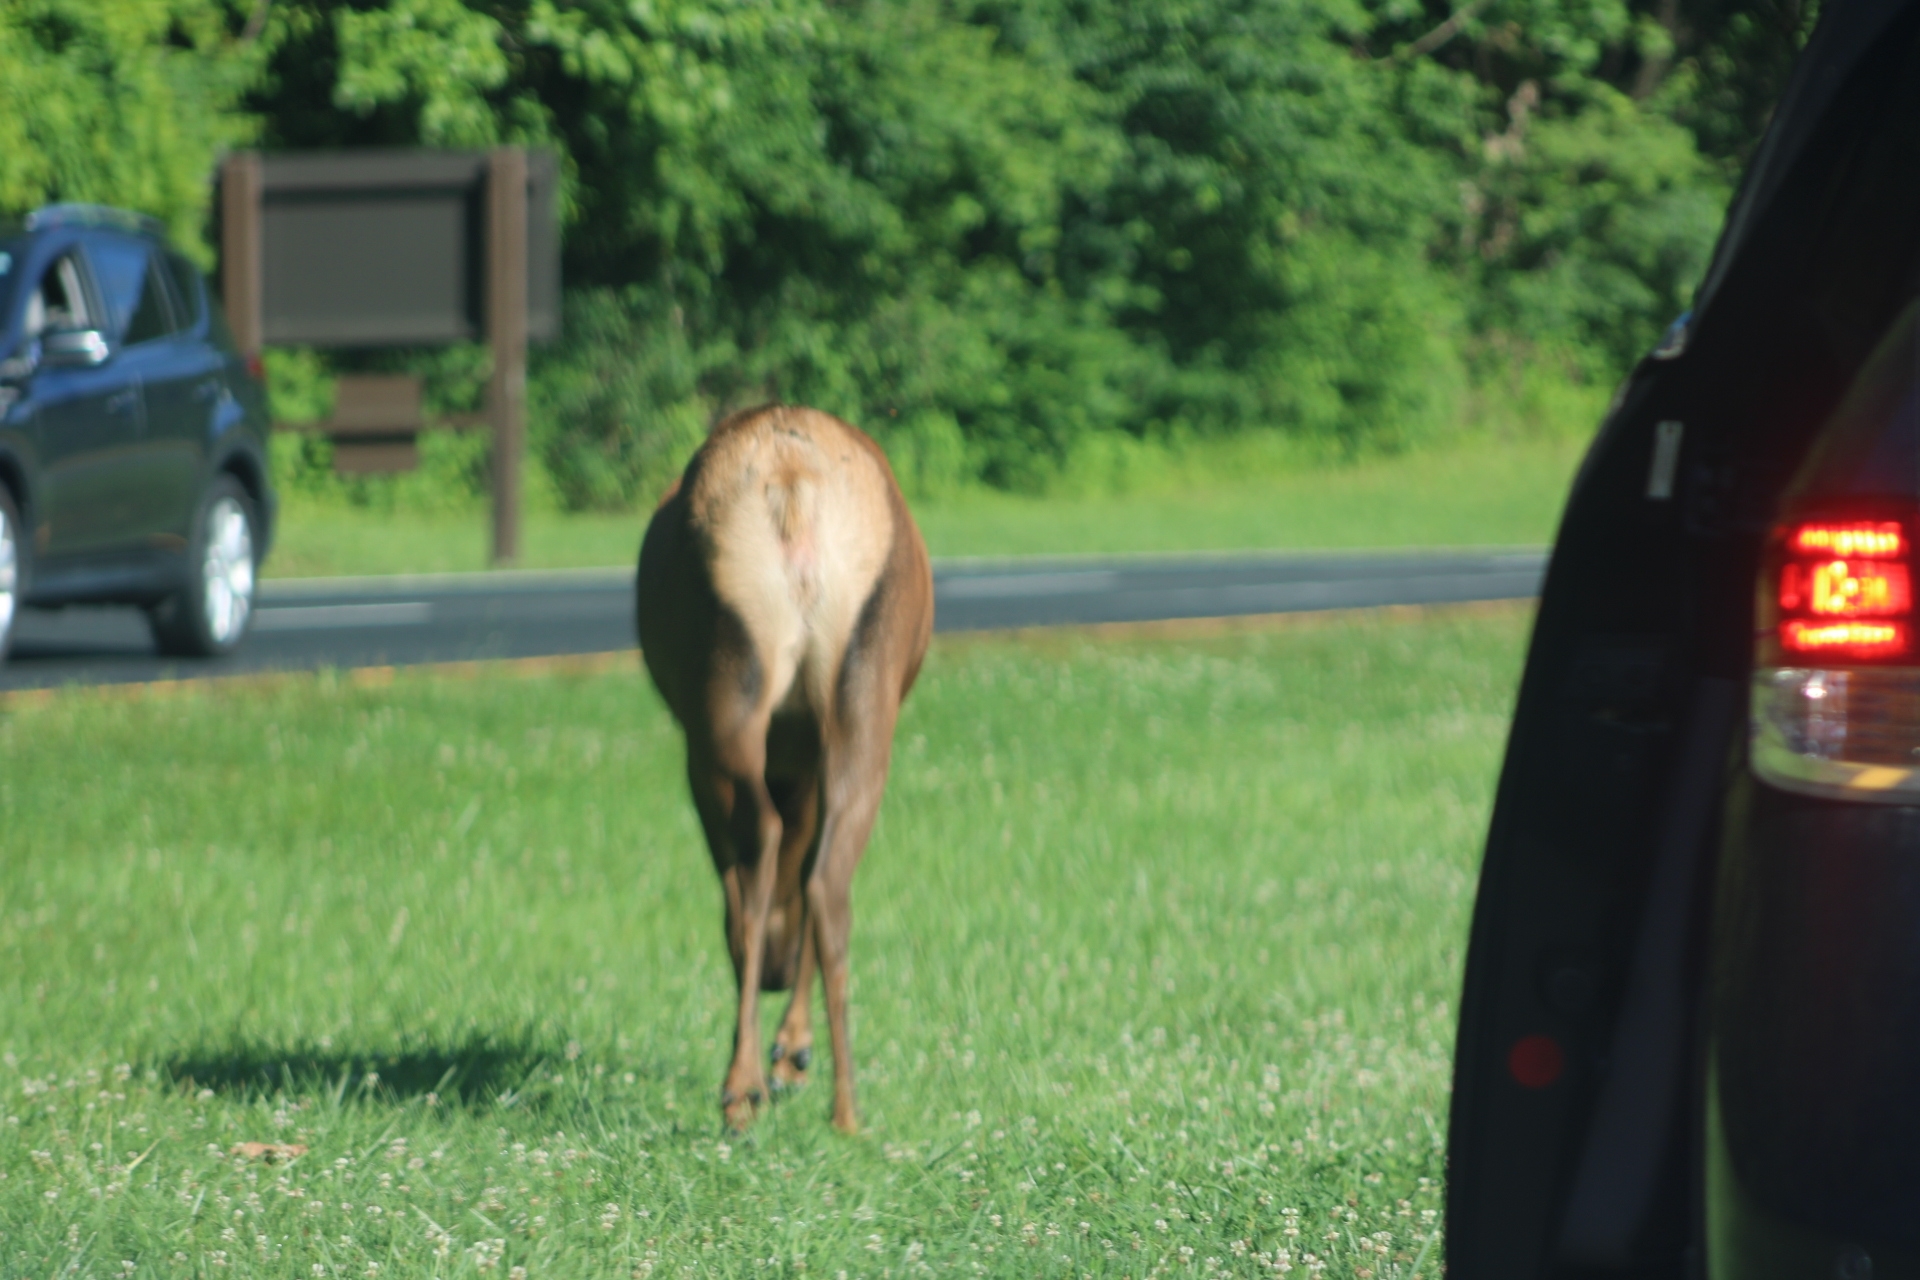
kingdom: Animalia
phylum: Chordata
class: Mammalia
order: Artiodactyla
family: Cervidae
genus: Cervus
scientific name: Cervus elaphus
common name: Red deer
